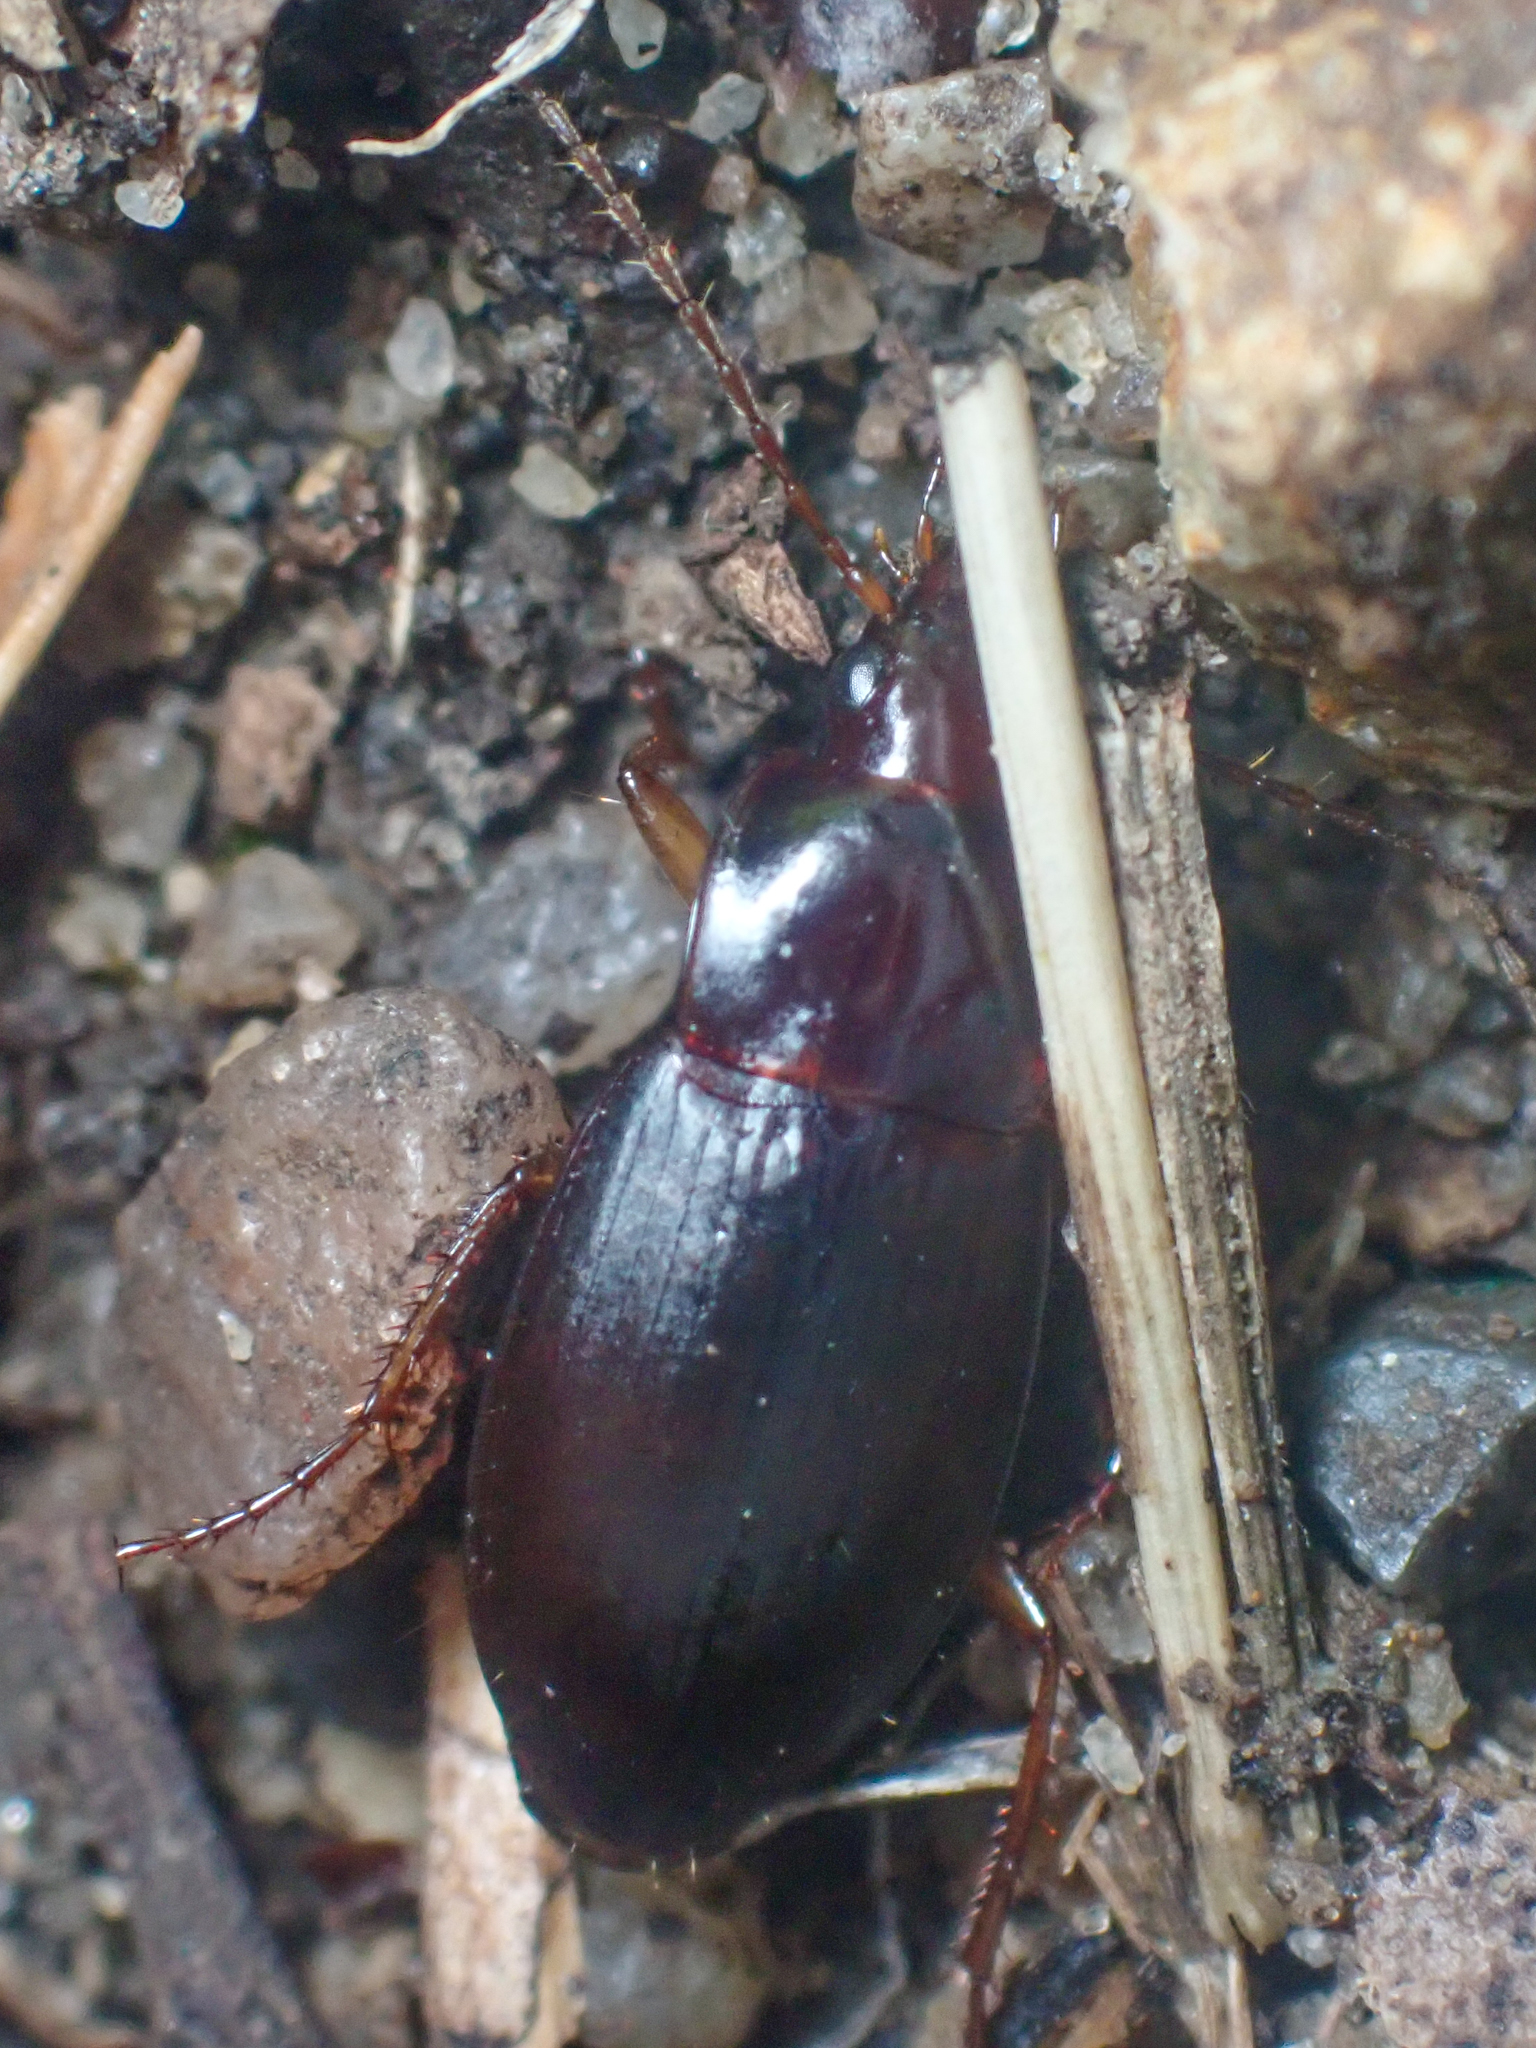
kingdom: Animalia
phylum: Arthropoda
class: Insecta
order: Coleoptera
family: Carabidae
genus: Calathus
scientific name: Calathus ruficollis
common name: Red-collared harp ground beetle
